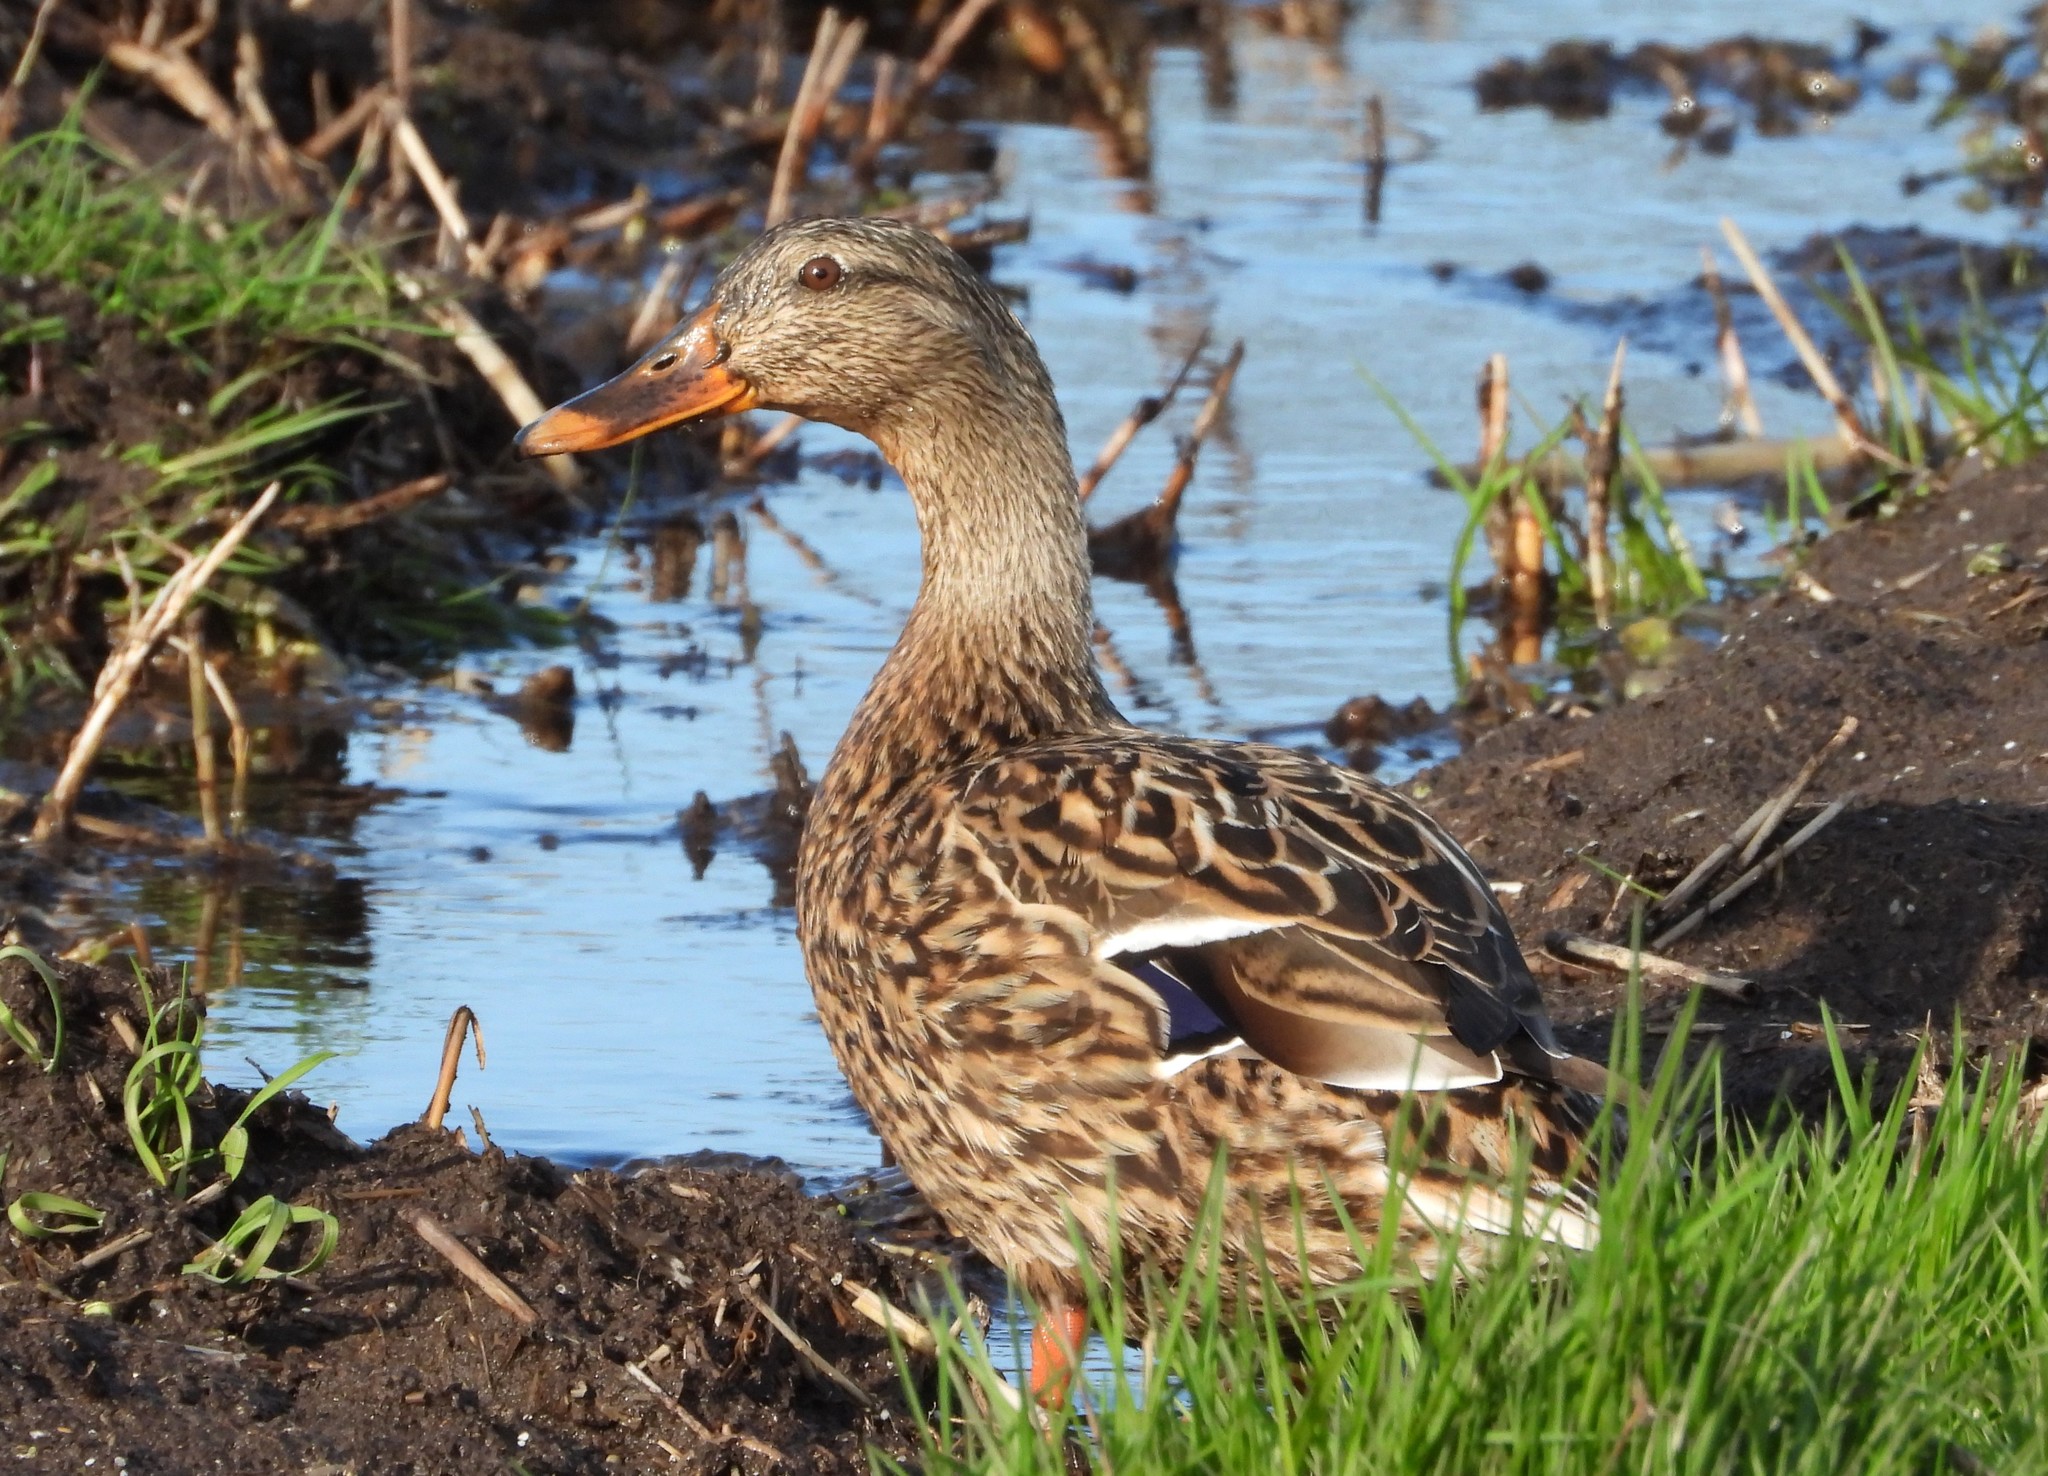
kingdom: Animalia
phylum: Chordata
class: Aves
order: Anseriformes
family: Anatidae
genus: Anas
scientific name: Anas platyrhynchos
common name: Mallard
